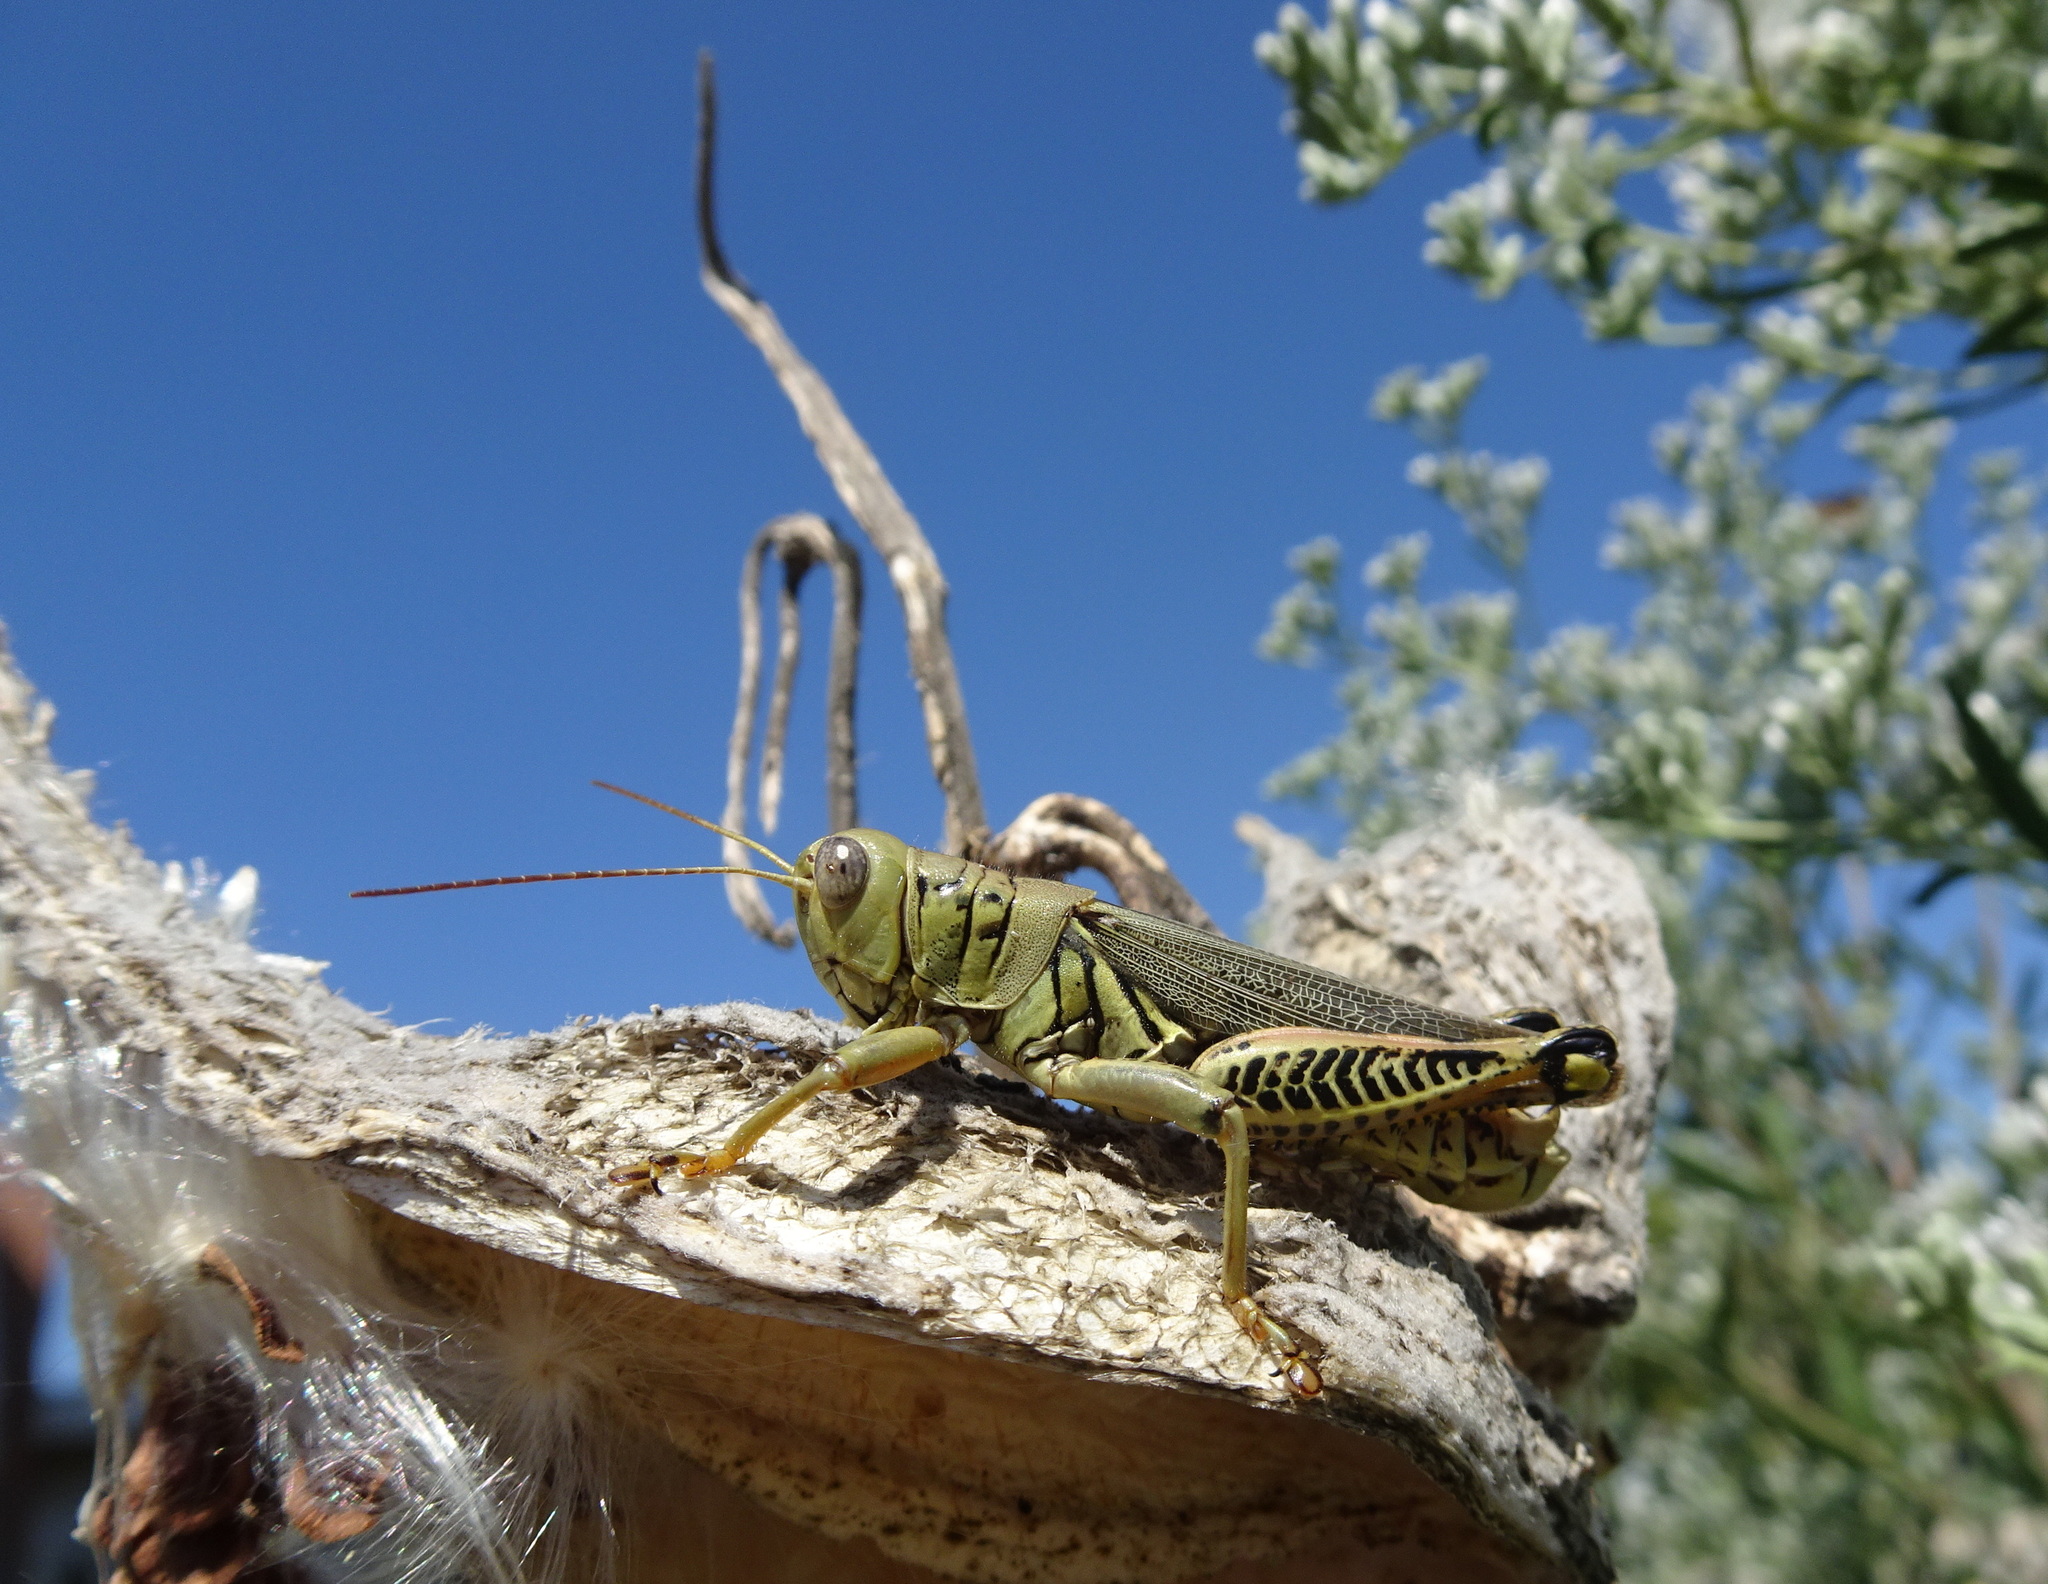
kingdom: Animalia
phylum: Arthropoda
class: Insecta
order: Orthoptera
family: Acrididae
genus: Melanoplus
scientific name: Melanoplus differentialis
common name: Differential grasshopper
